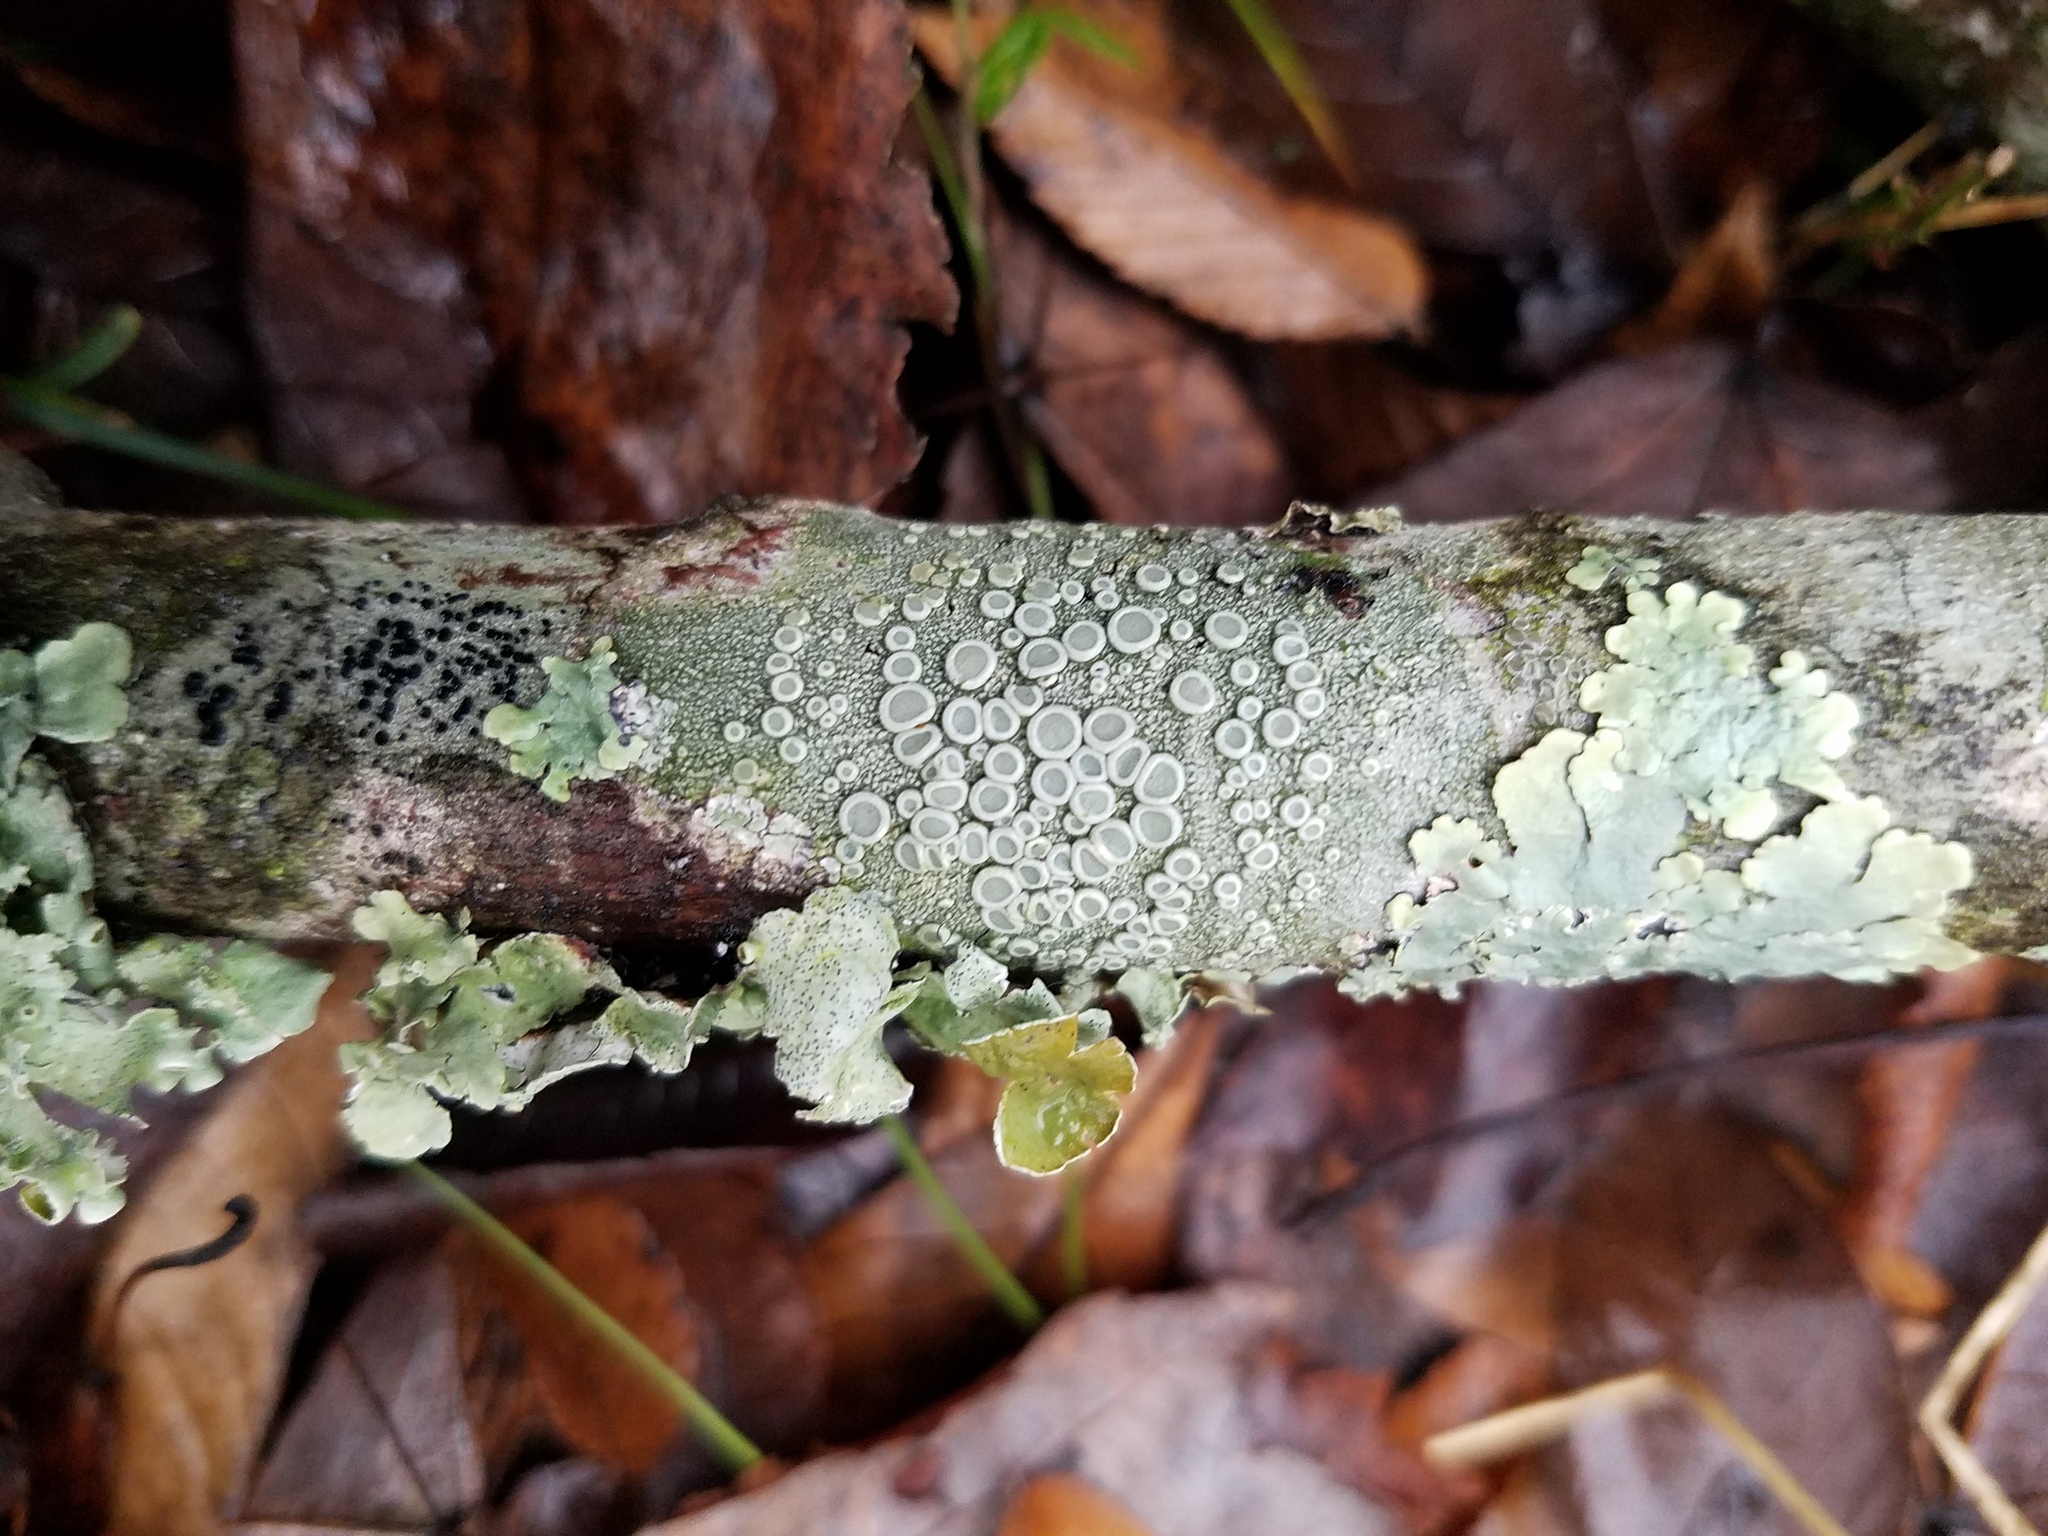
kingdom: Fungi
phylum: Ascomycota
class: Lecanoromycetes
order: Pertusariales
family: Ochrolechiaceae
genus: Ochrolechia
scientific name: Ochrolechia africana
